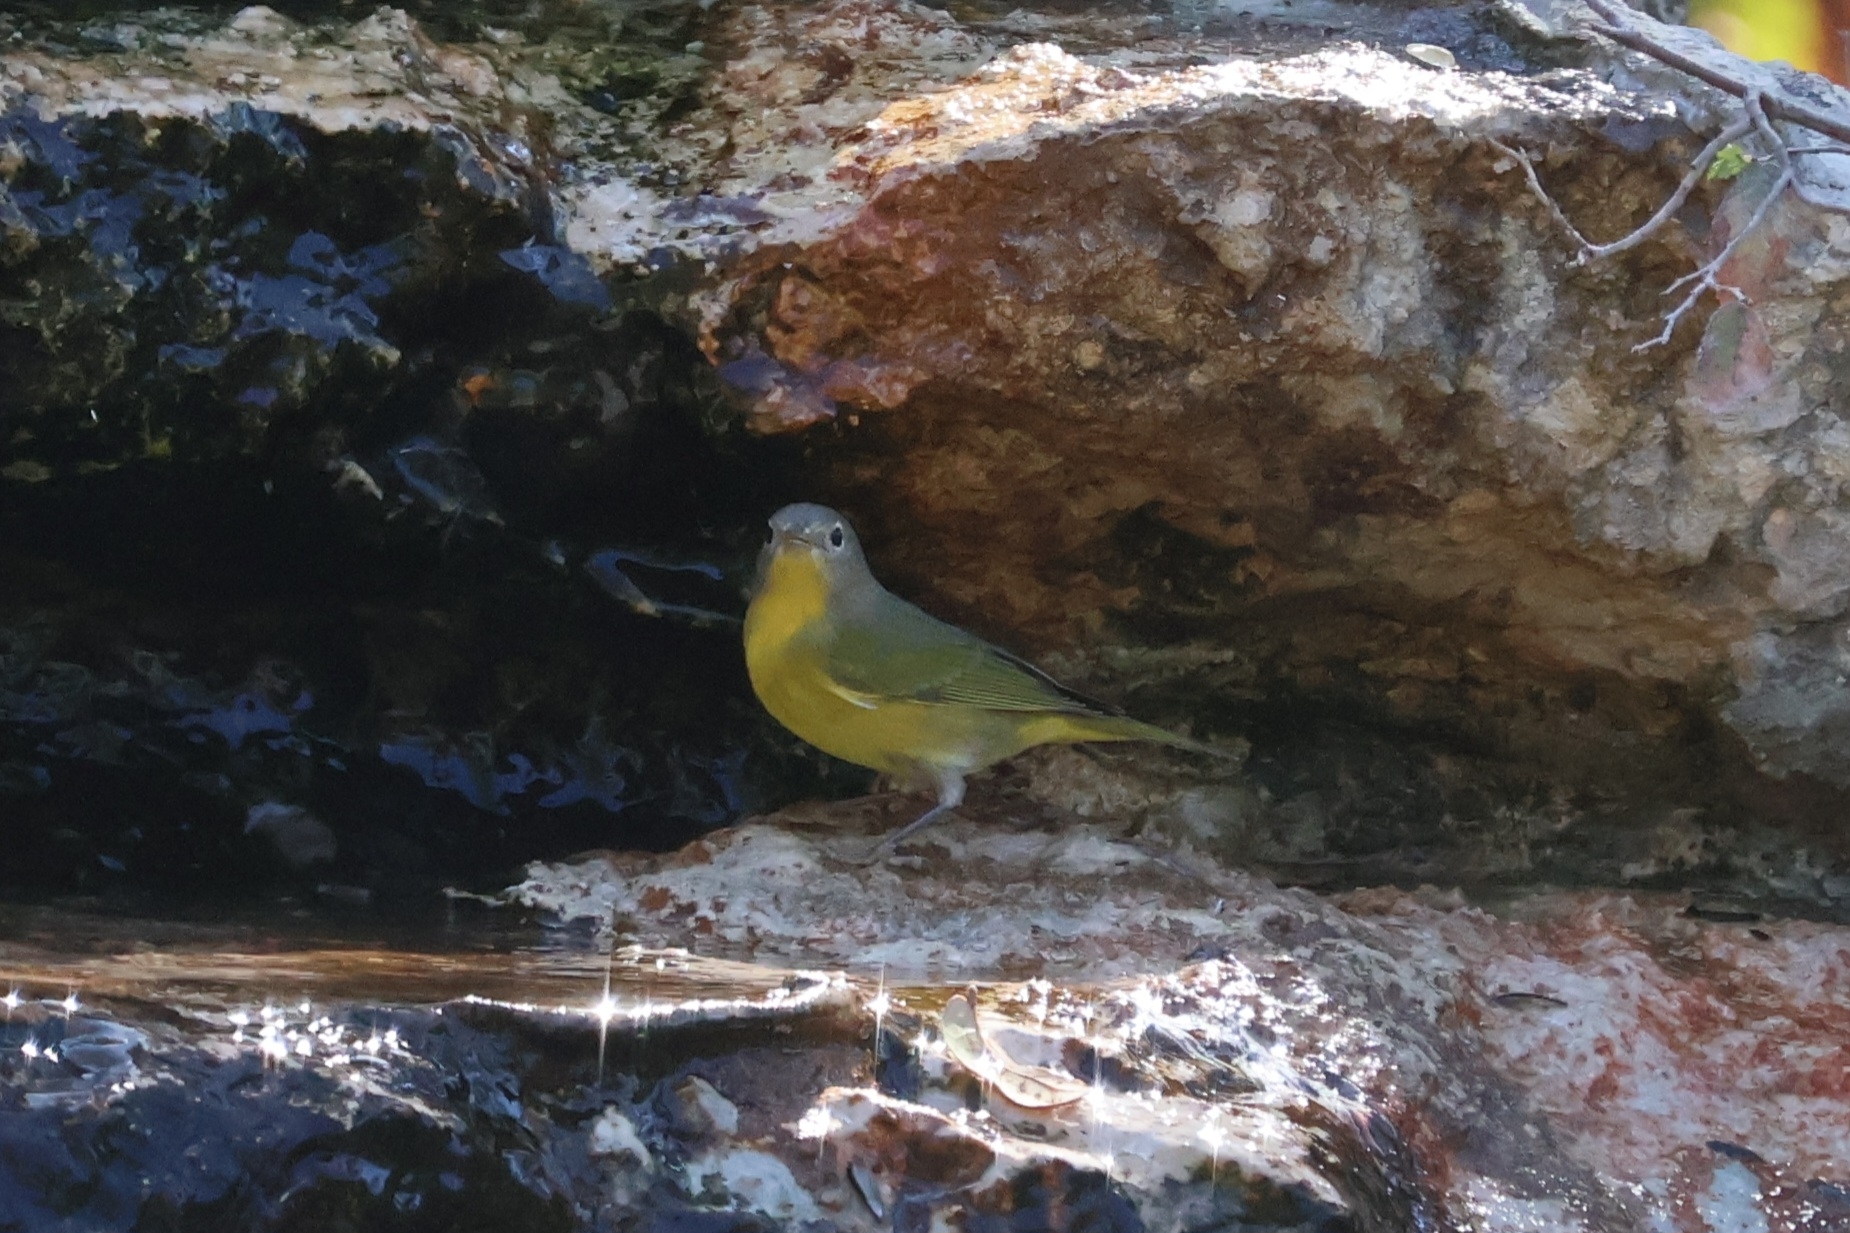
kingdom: Animalia
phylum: Chordata
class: Aves
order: Passeriformes
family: Parulidae
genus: Leiothlypis
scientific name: Leiothlypis ruficapilla
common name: Nashville warbler
